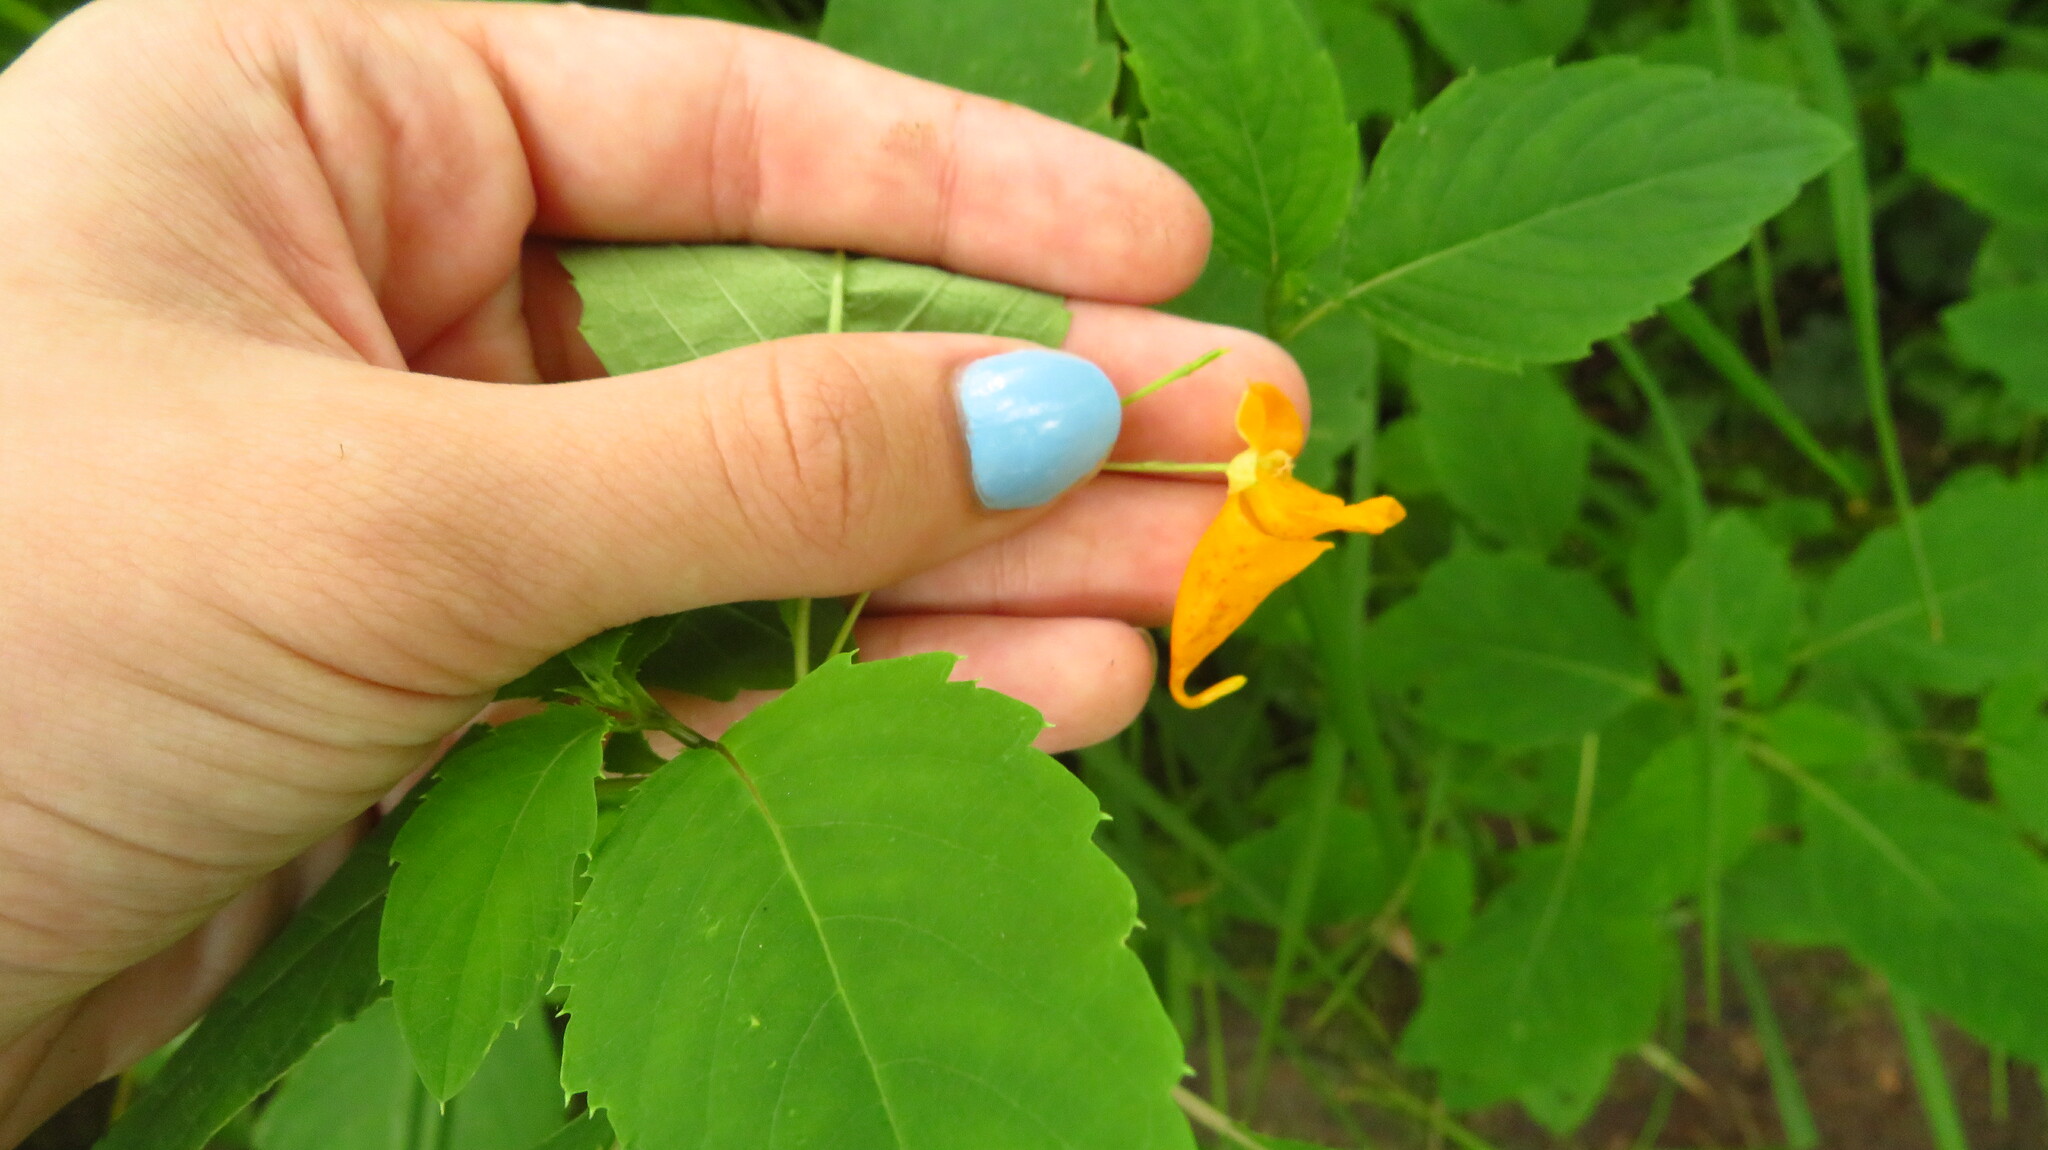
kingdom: Plantae
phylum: Tracheophyta
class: Magnoliopsida
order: Ericales
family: Balsaminaceae
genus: Impatiens
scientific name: Impatiens capensis
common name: Orange balsam
